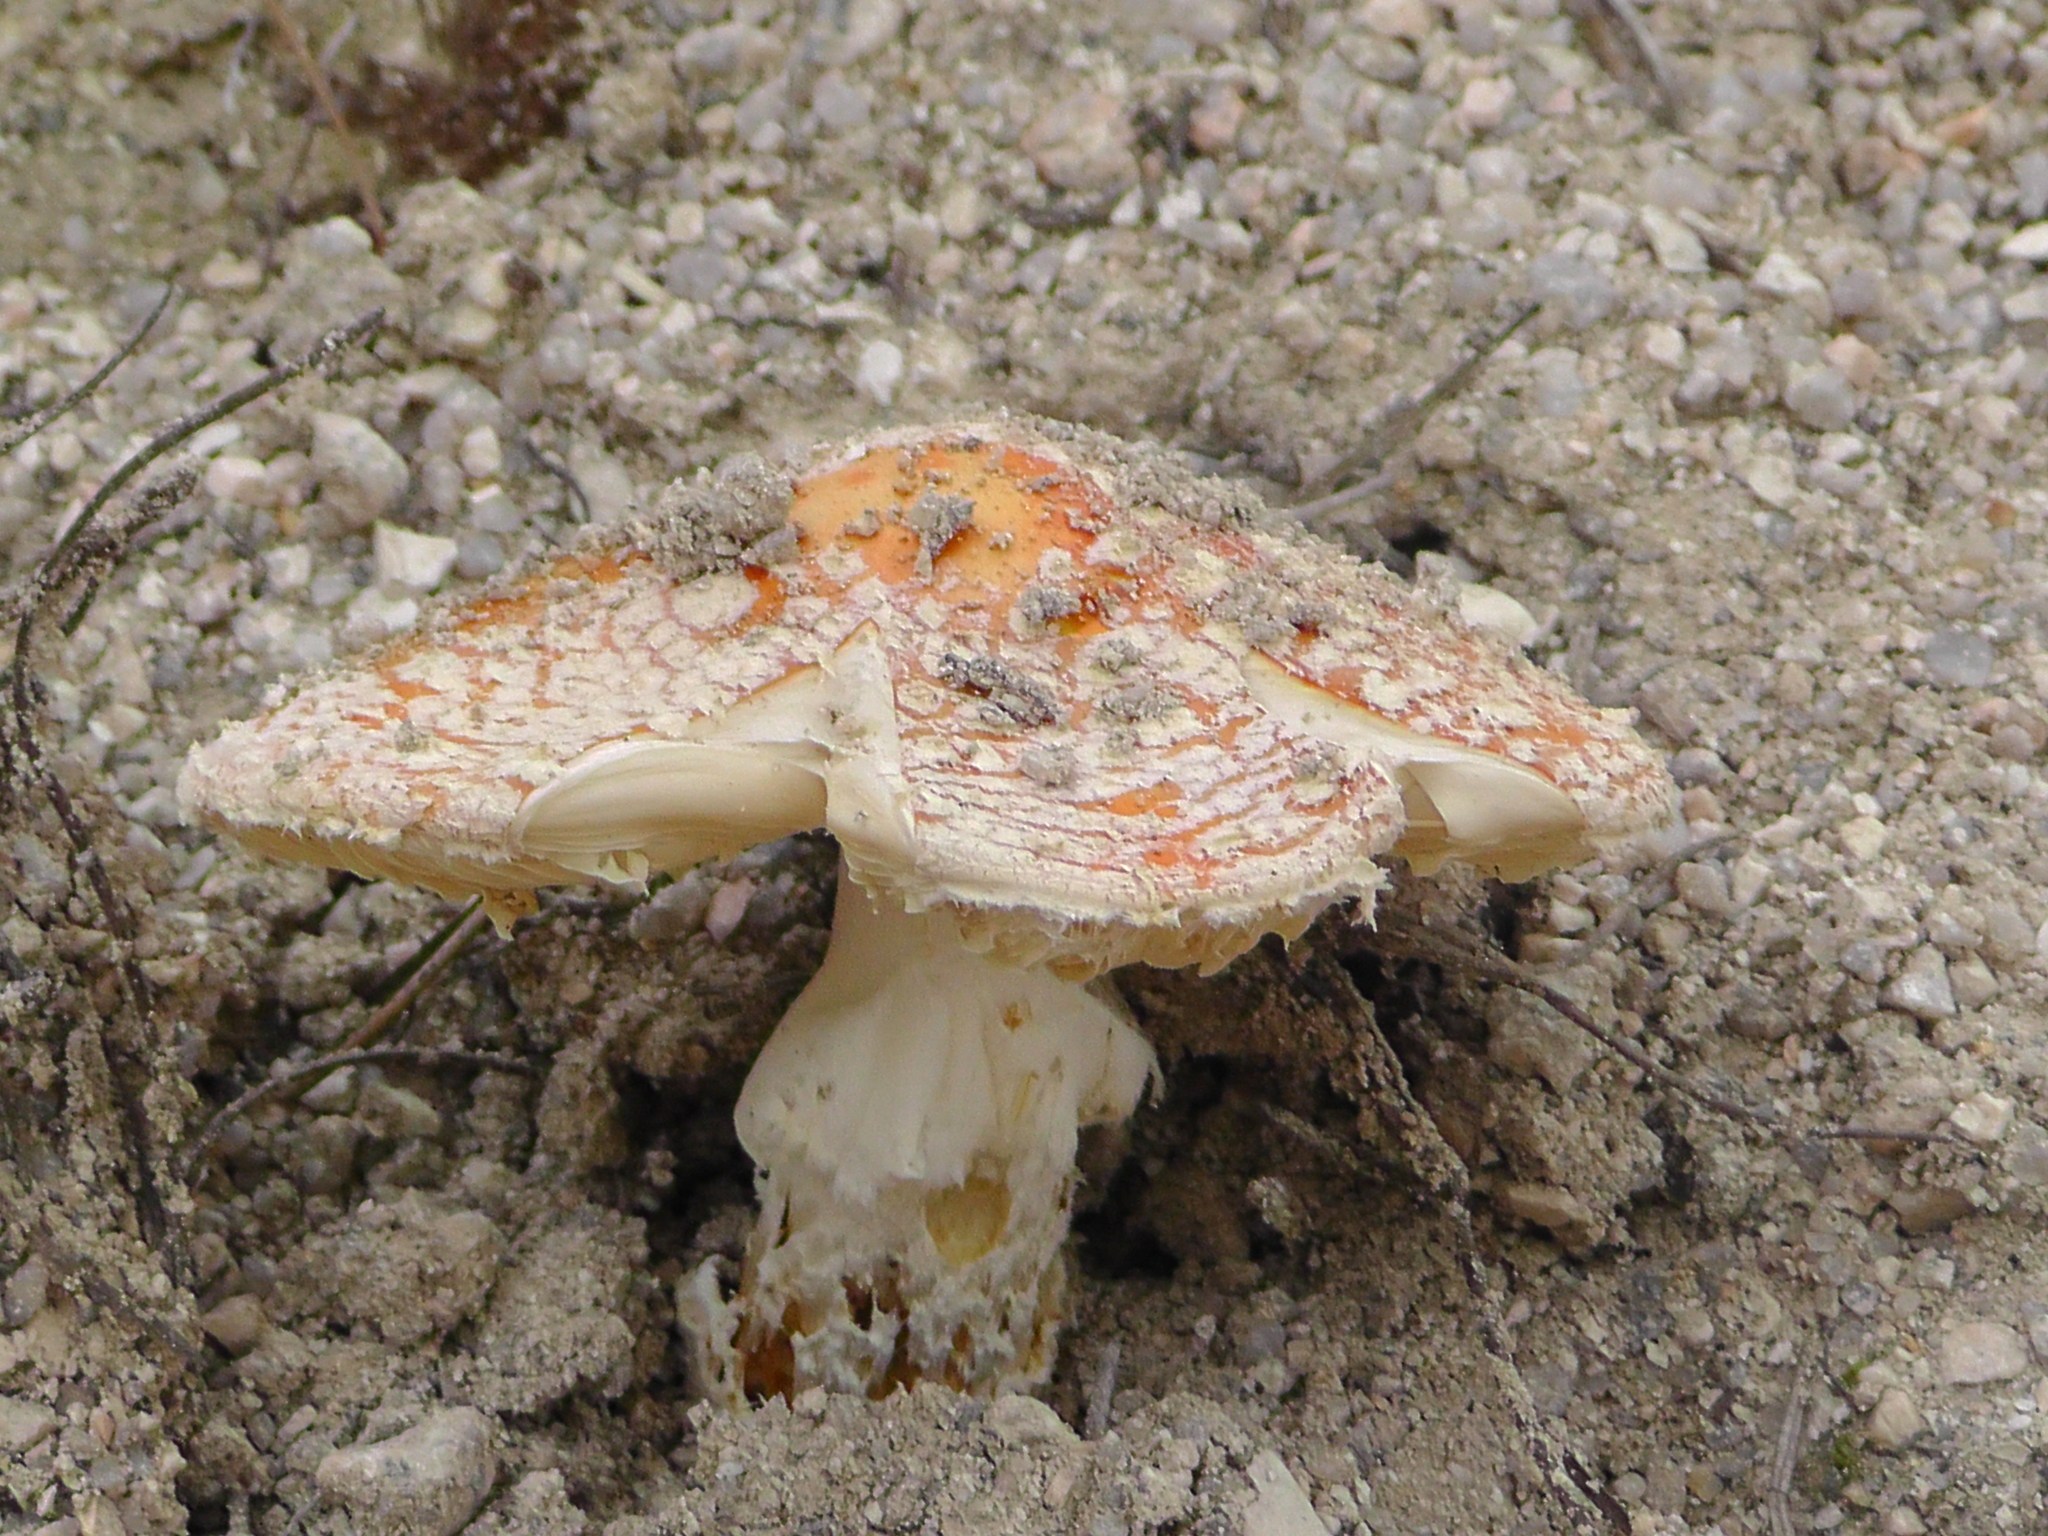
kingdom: Fungi
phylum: Basidiomycota
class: Agaricomycetes
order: Agaricales
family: Amanitaceae
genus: Amanita
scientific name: Amanita muscaria
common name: Fly agaric
